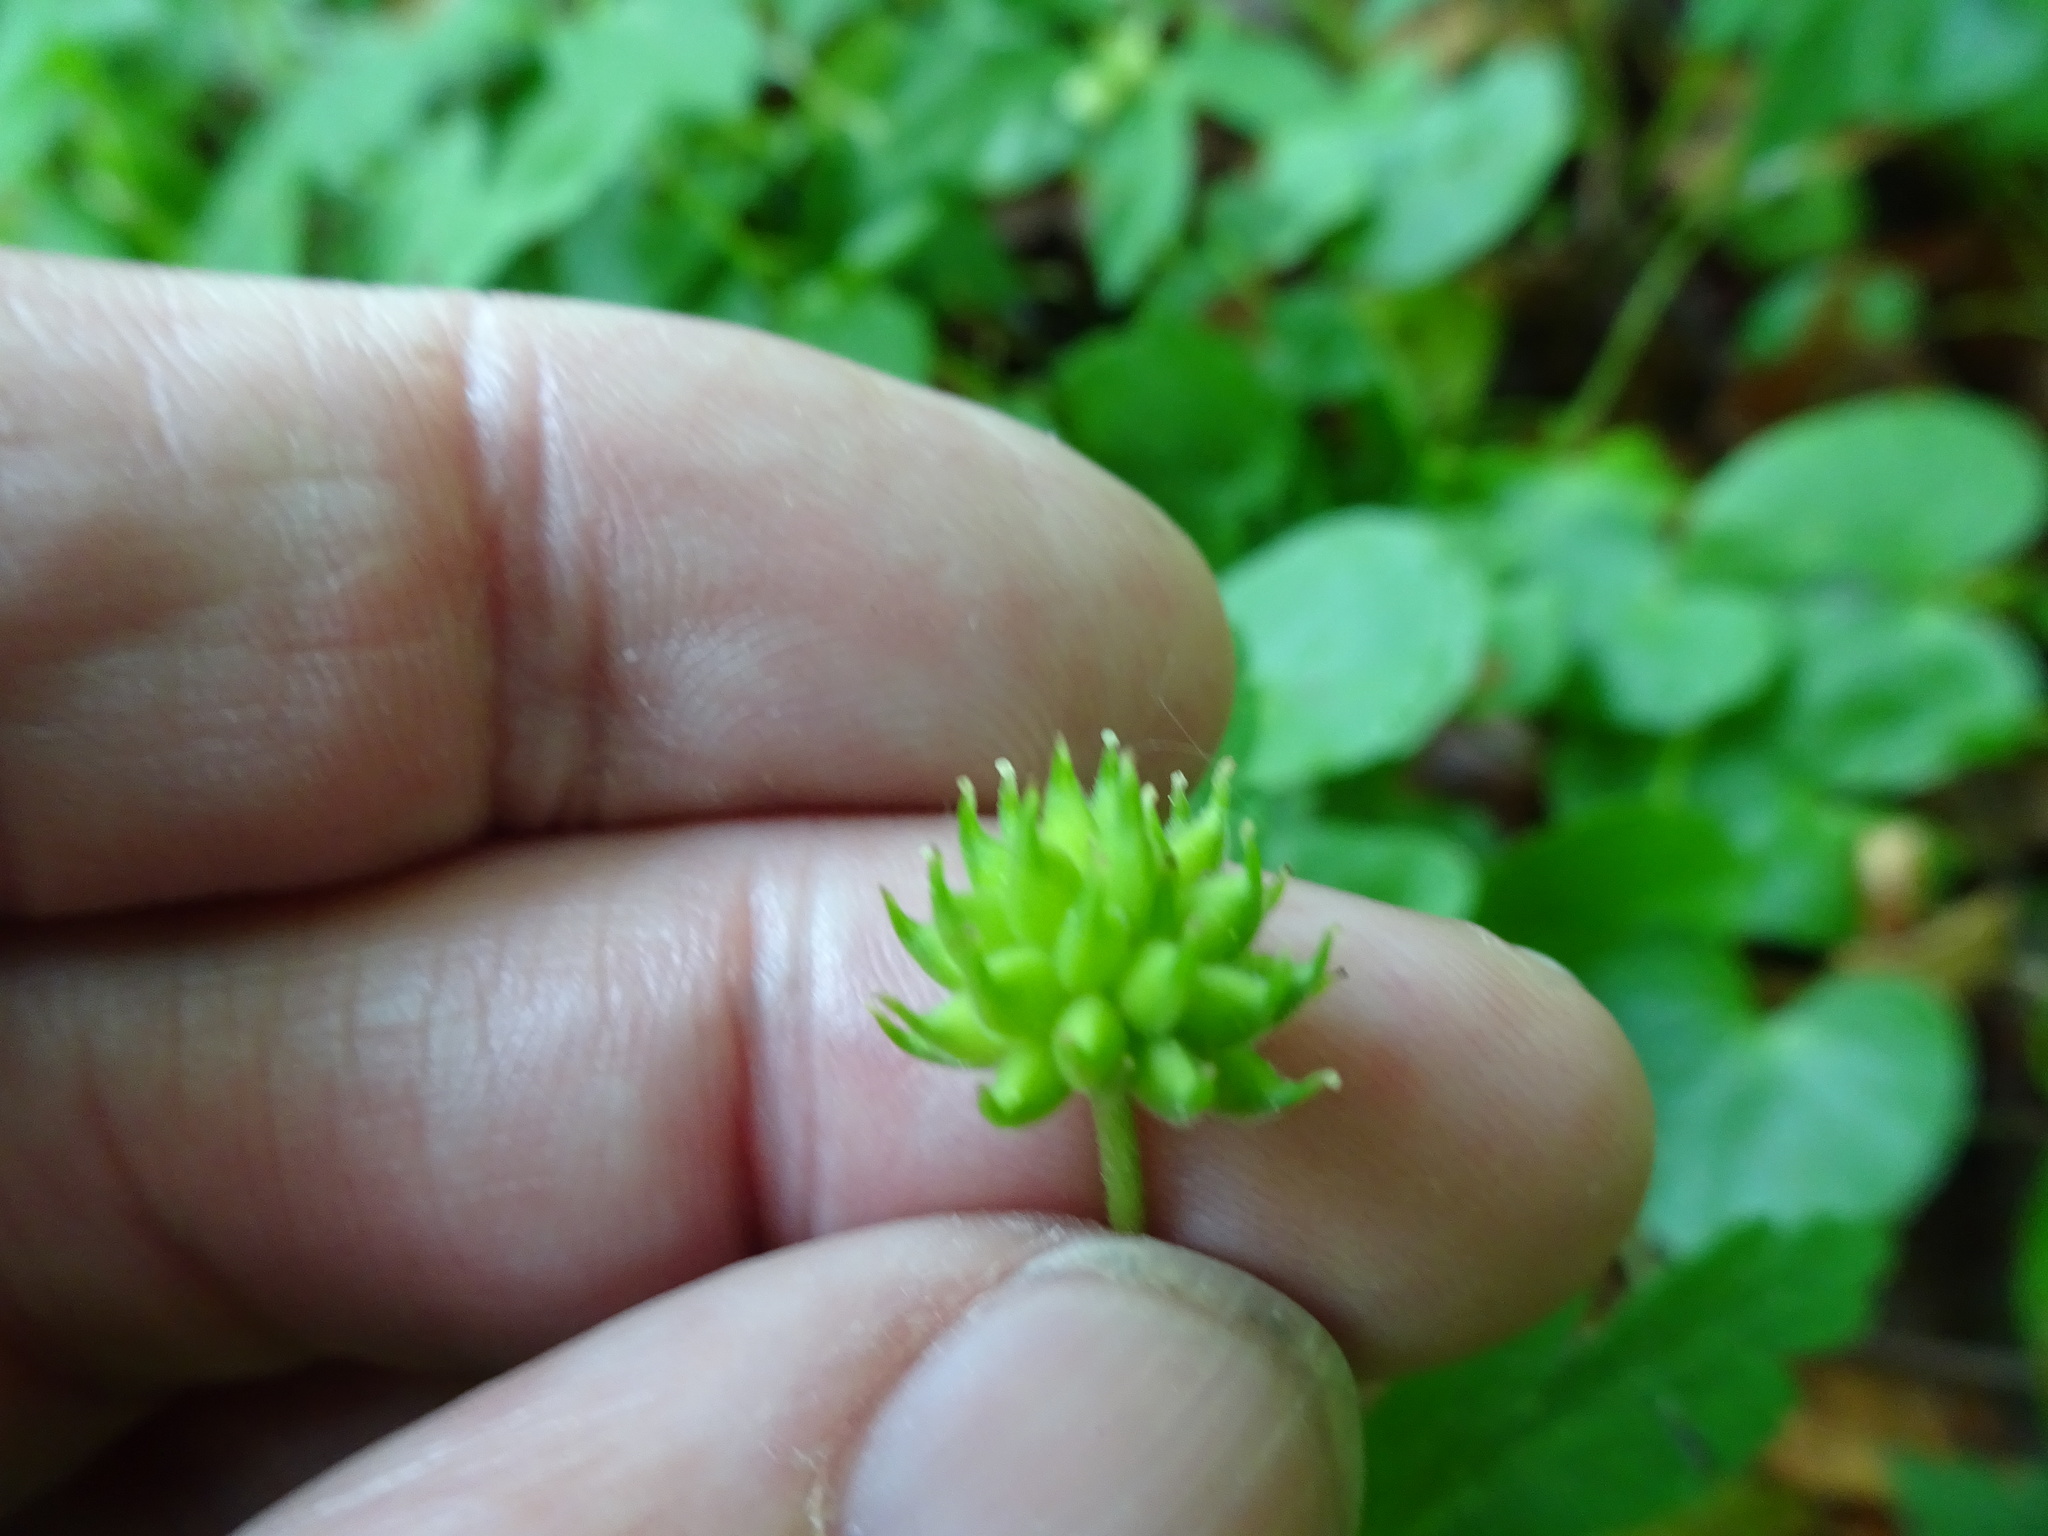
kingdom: Plantae
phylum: Tracheophyta
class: Magnoliopsida
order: Ranunculales
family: Ranunculaceae
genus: Anemone
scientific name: Anemone nemorosa
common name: Wood anemone
